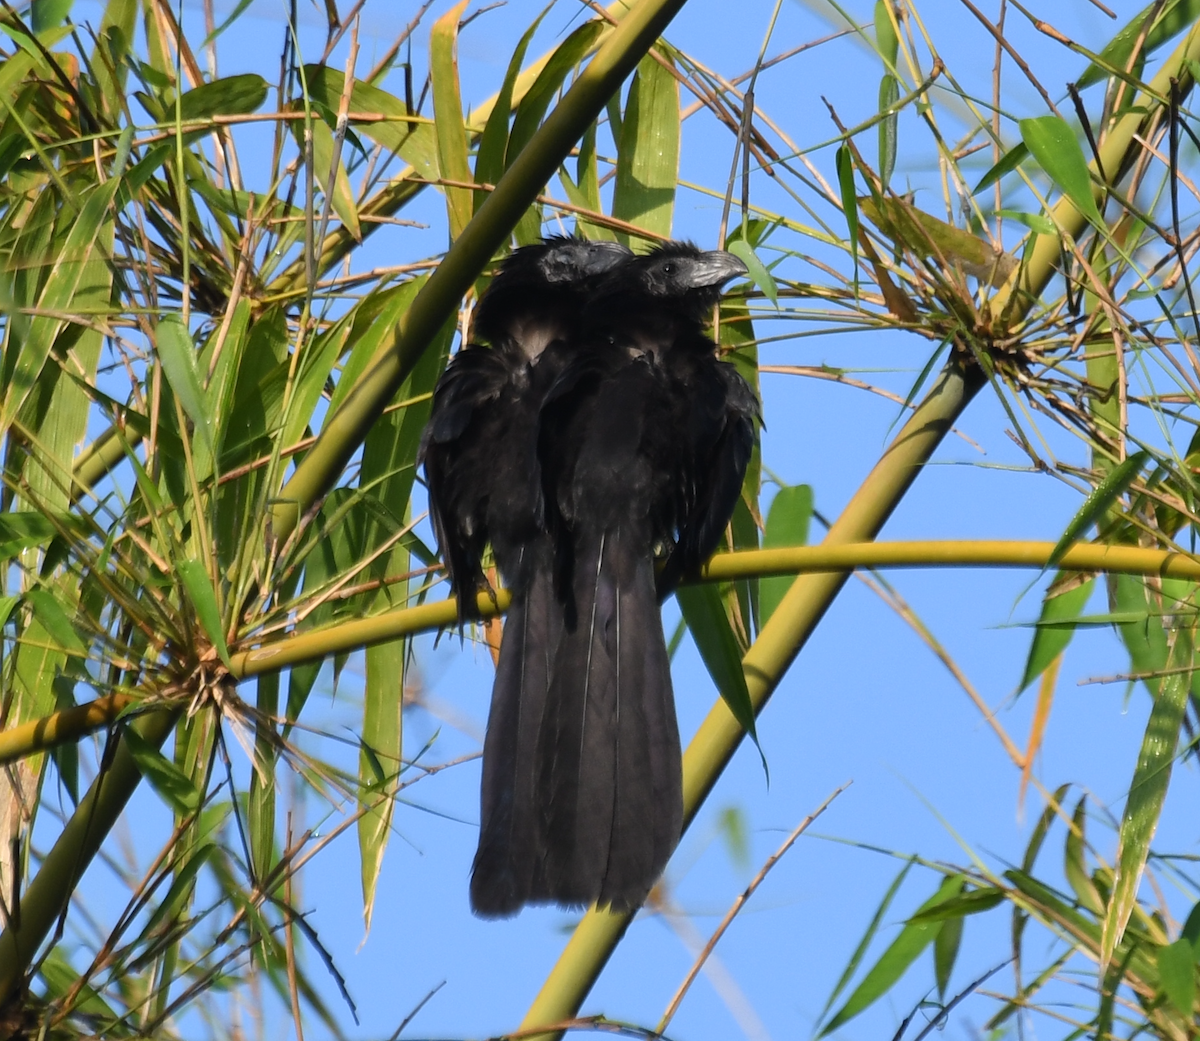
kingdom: Animalia
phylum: Chordata
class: Aves
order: Cuculiformes
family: Cuculidae
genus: Crotophaga
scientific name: Crotophaga sulcirostris
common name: Groove-billed ani
